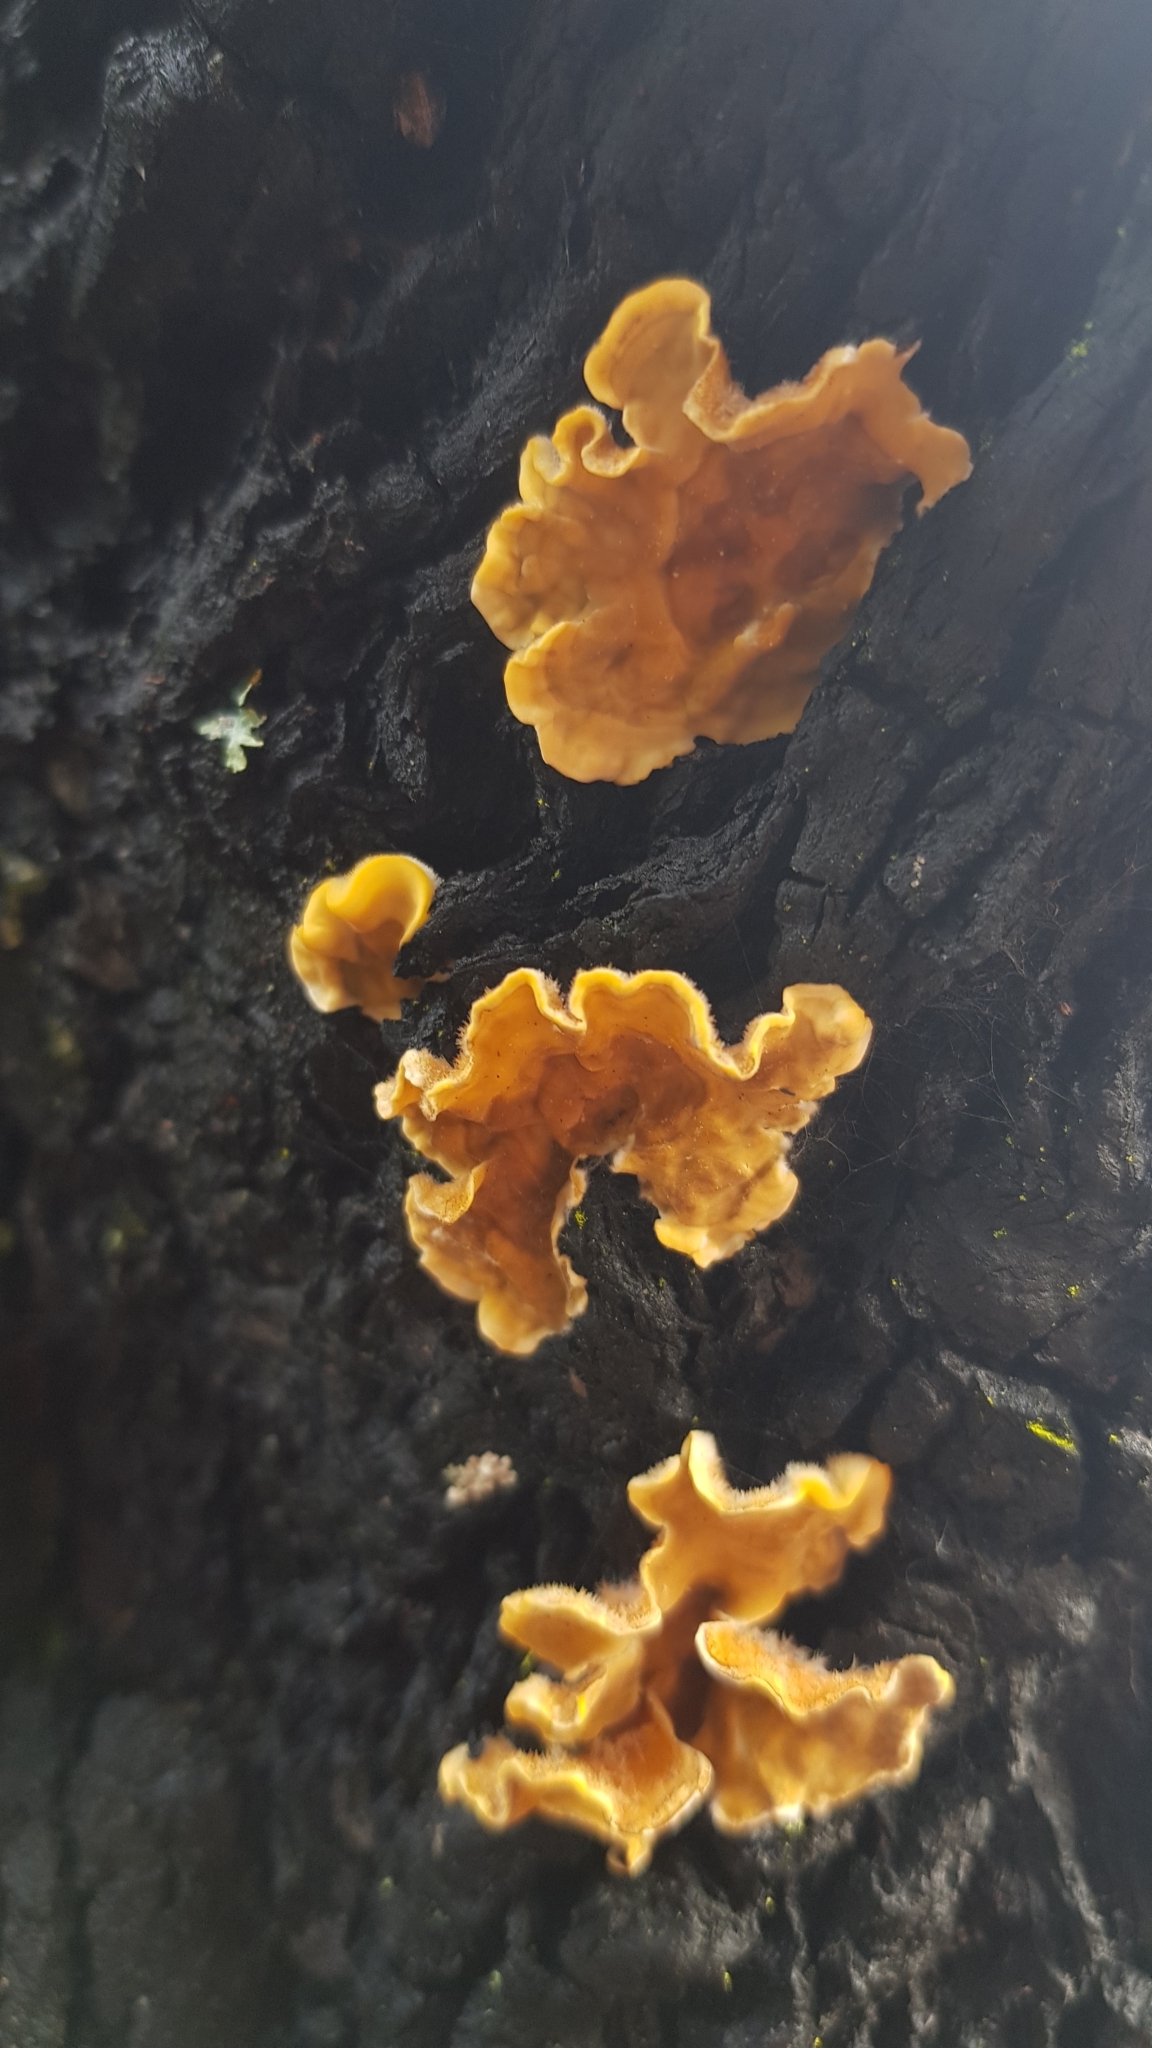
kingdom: Fungi
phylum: Basidiomycota
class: Agaricomycetes
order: Russulales
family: Stereaceae
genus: Stereum
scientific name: Stereum hirsutum
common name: Hairy curtain crust
